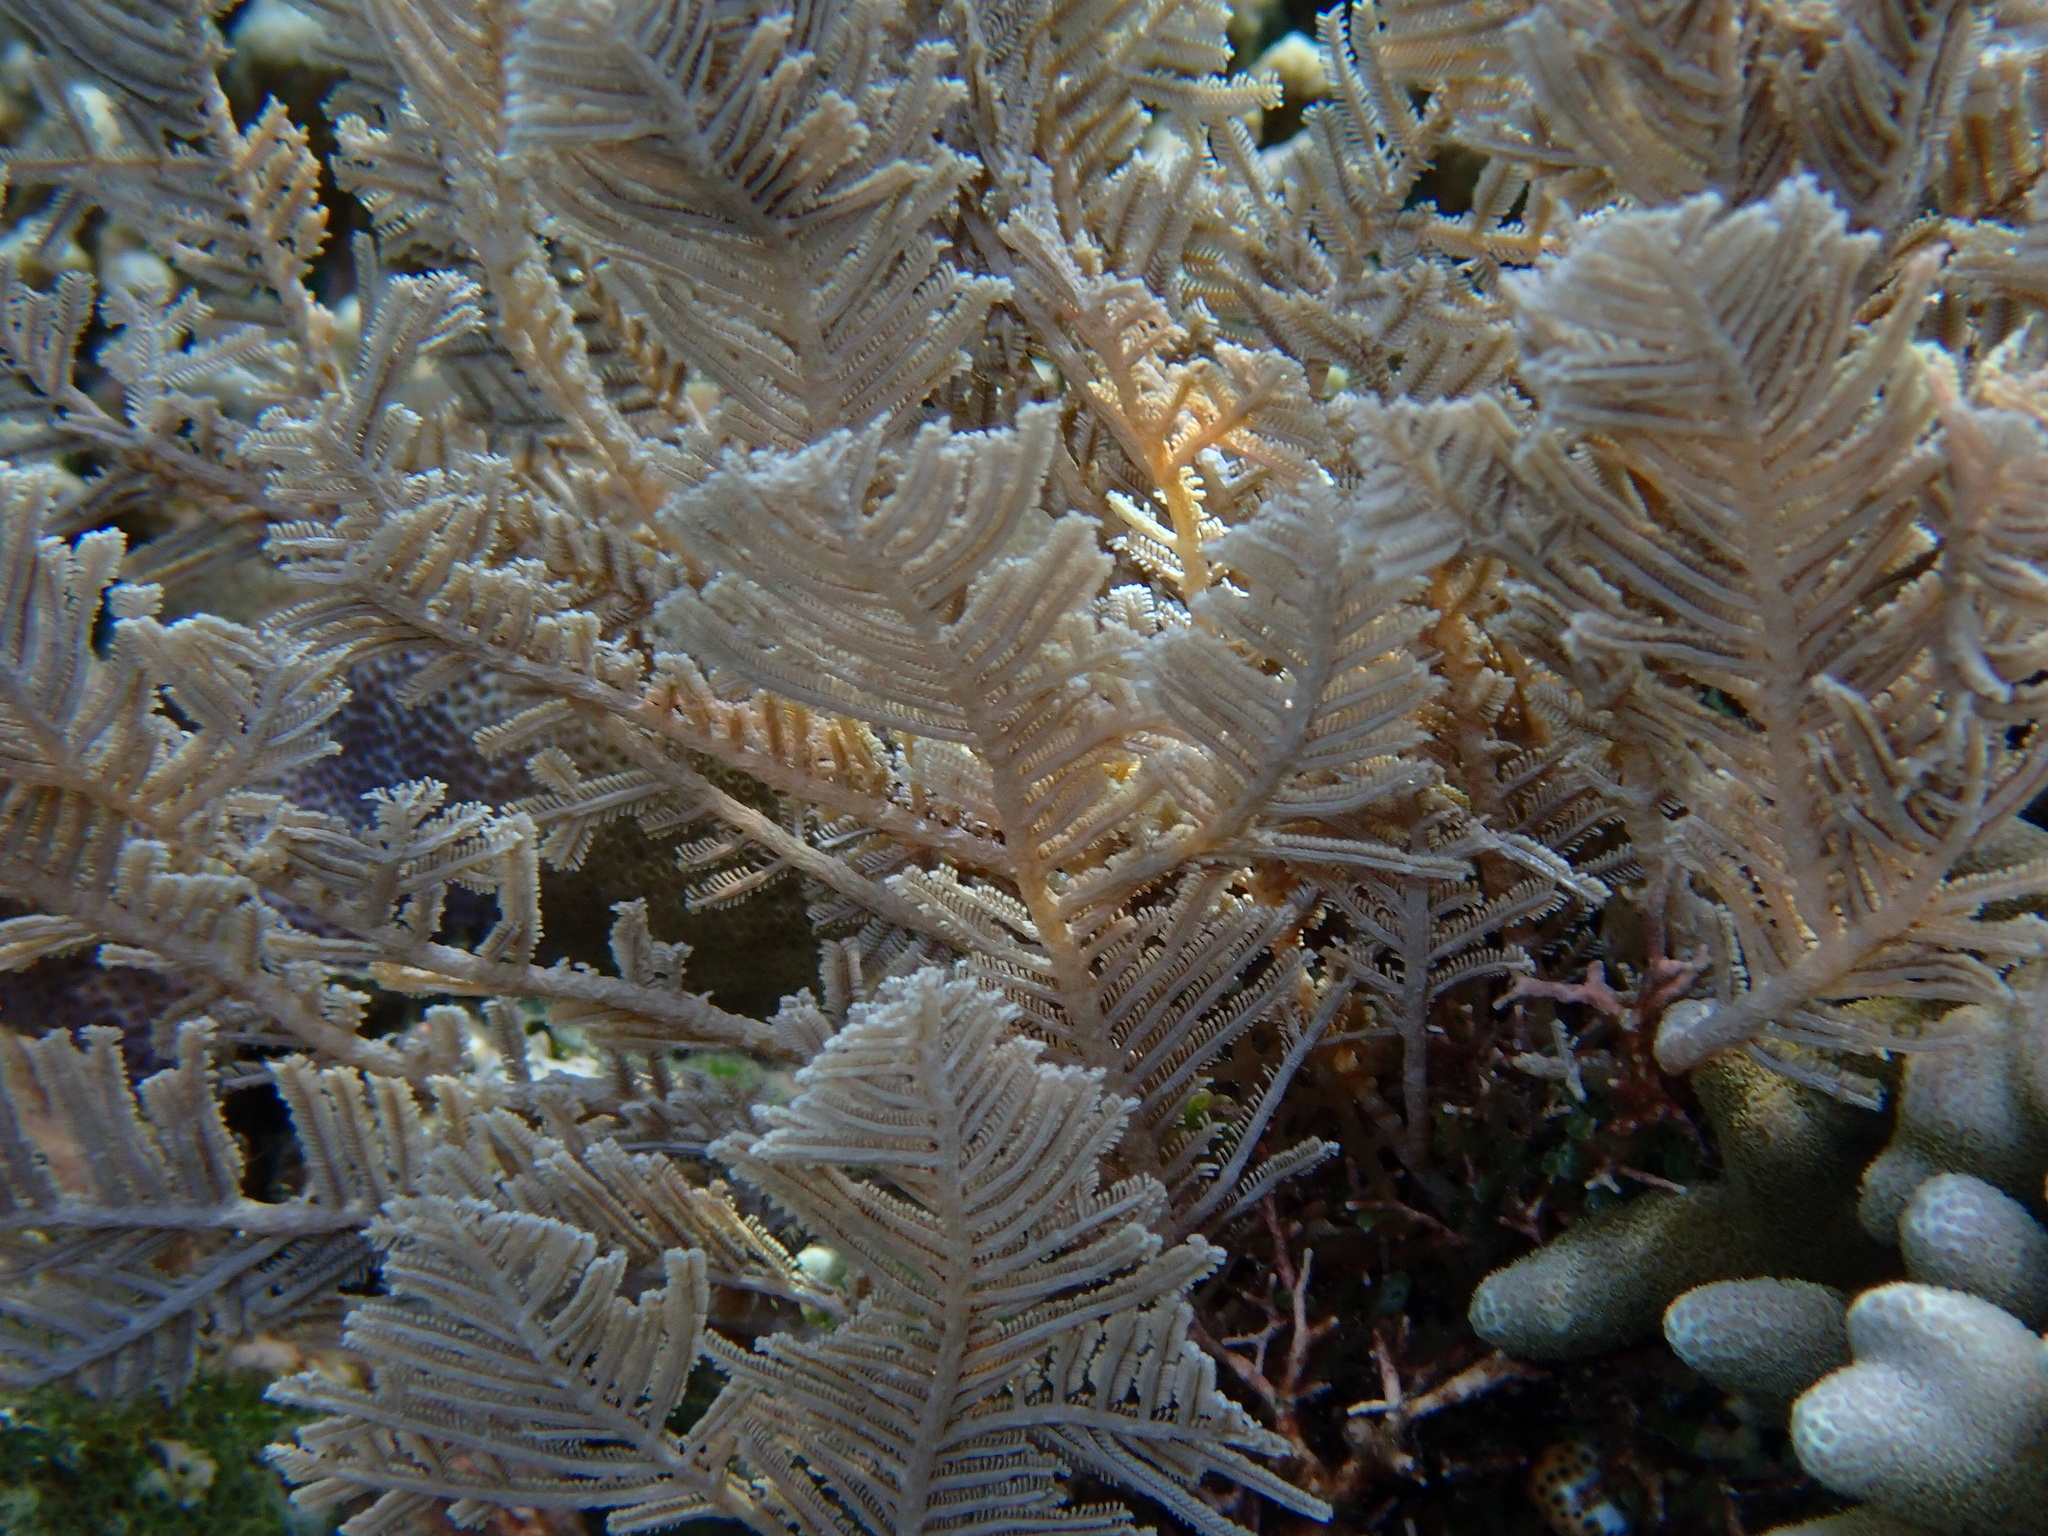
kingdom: Animalia
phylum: Cnidaria
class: Hydrozoa
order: Leptothecata
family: Aglaopheniidae
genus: Pachyrhynchia
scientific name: Pachyrhynchia cuppressina
